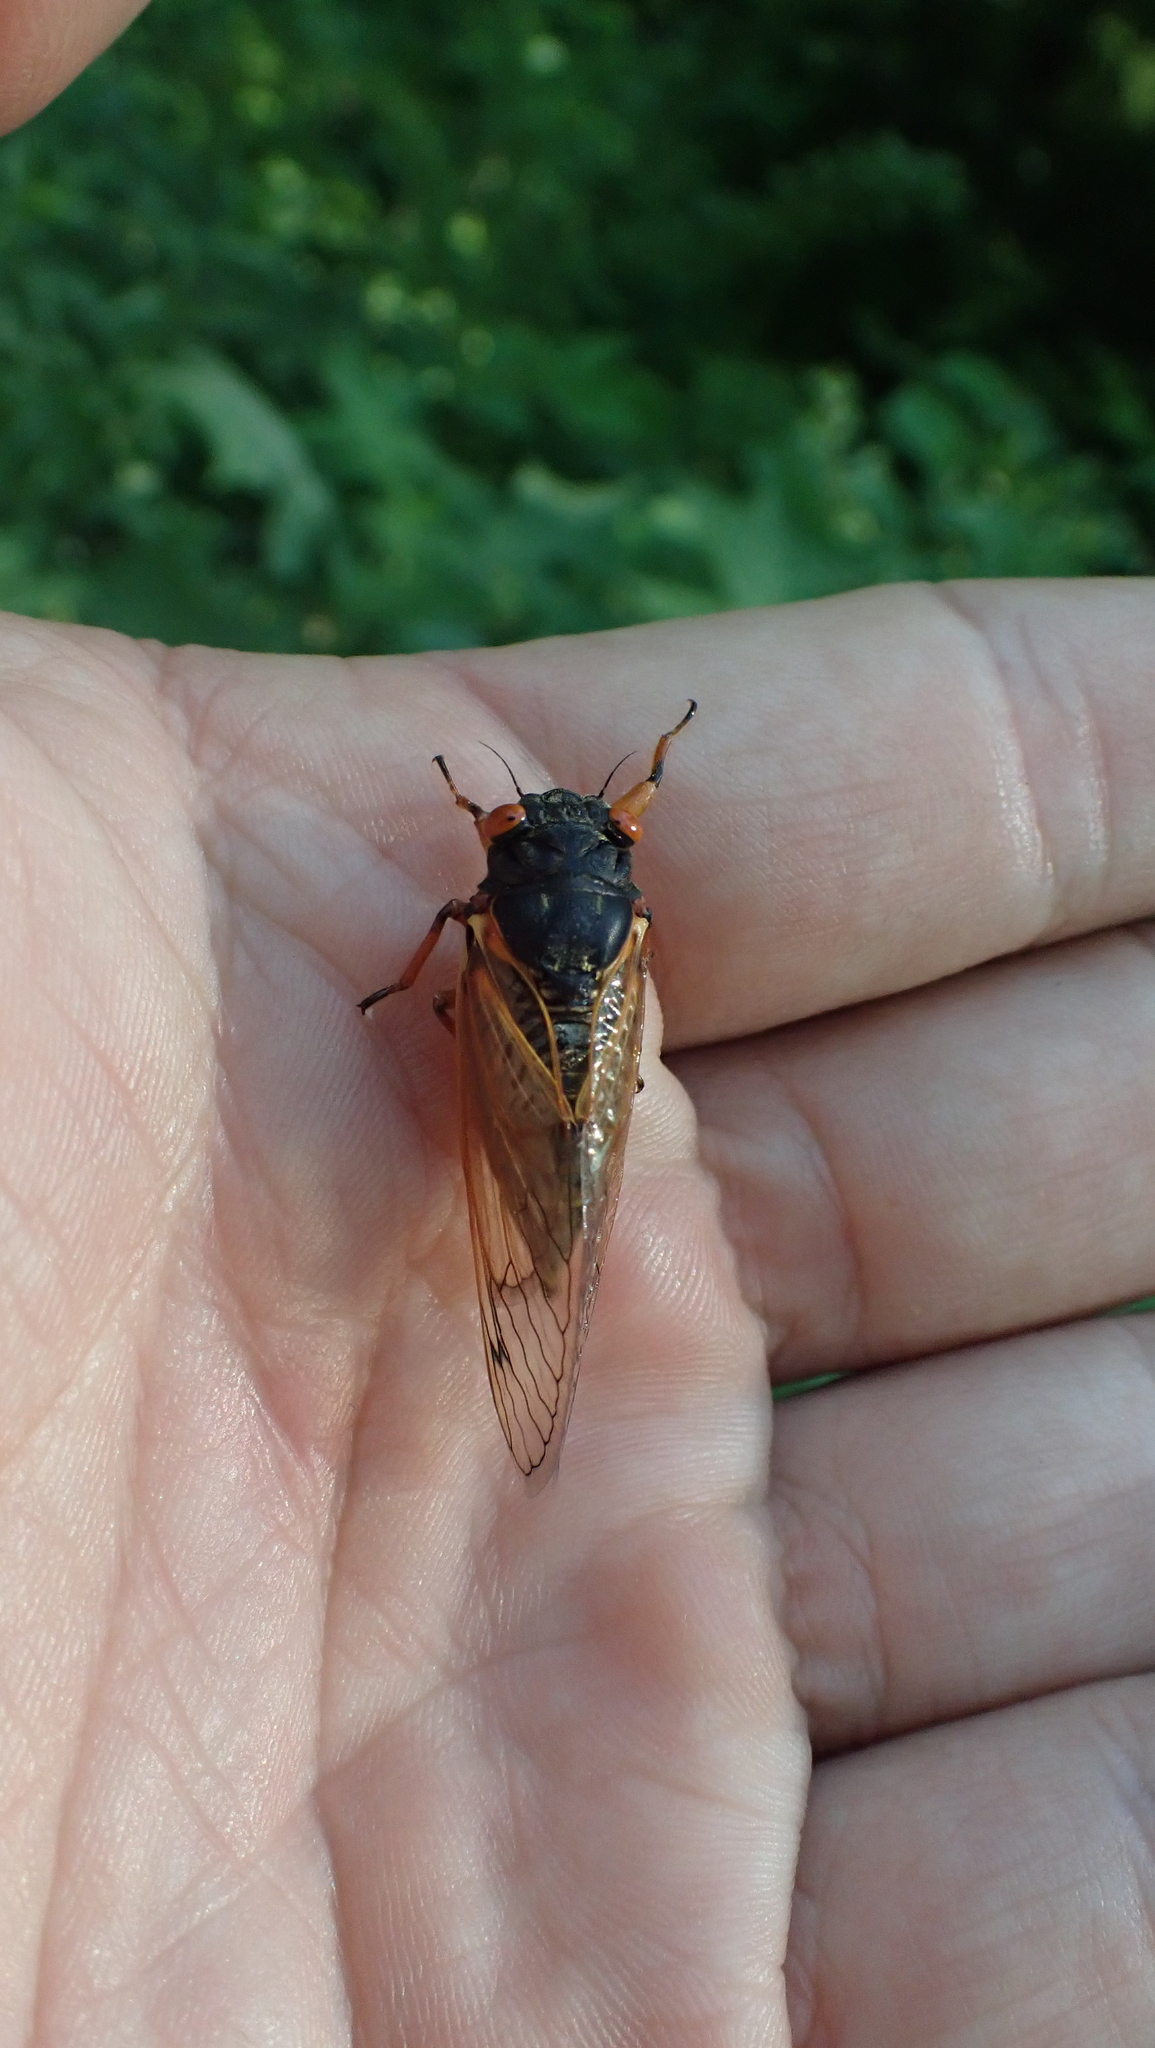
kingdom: Animalia
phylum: Arthropoda
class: Insecta
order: Hemiptera
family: Cicadidae
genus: Magicicada
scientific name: Magicicada cassini
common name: Cassin's 17-year cicada
